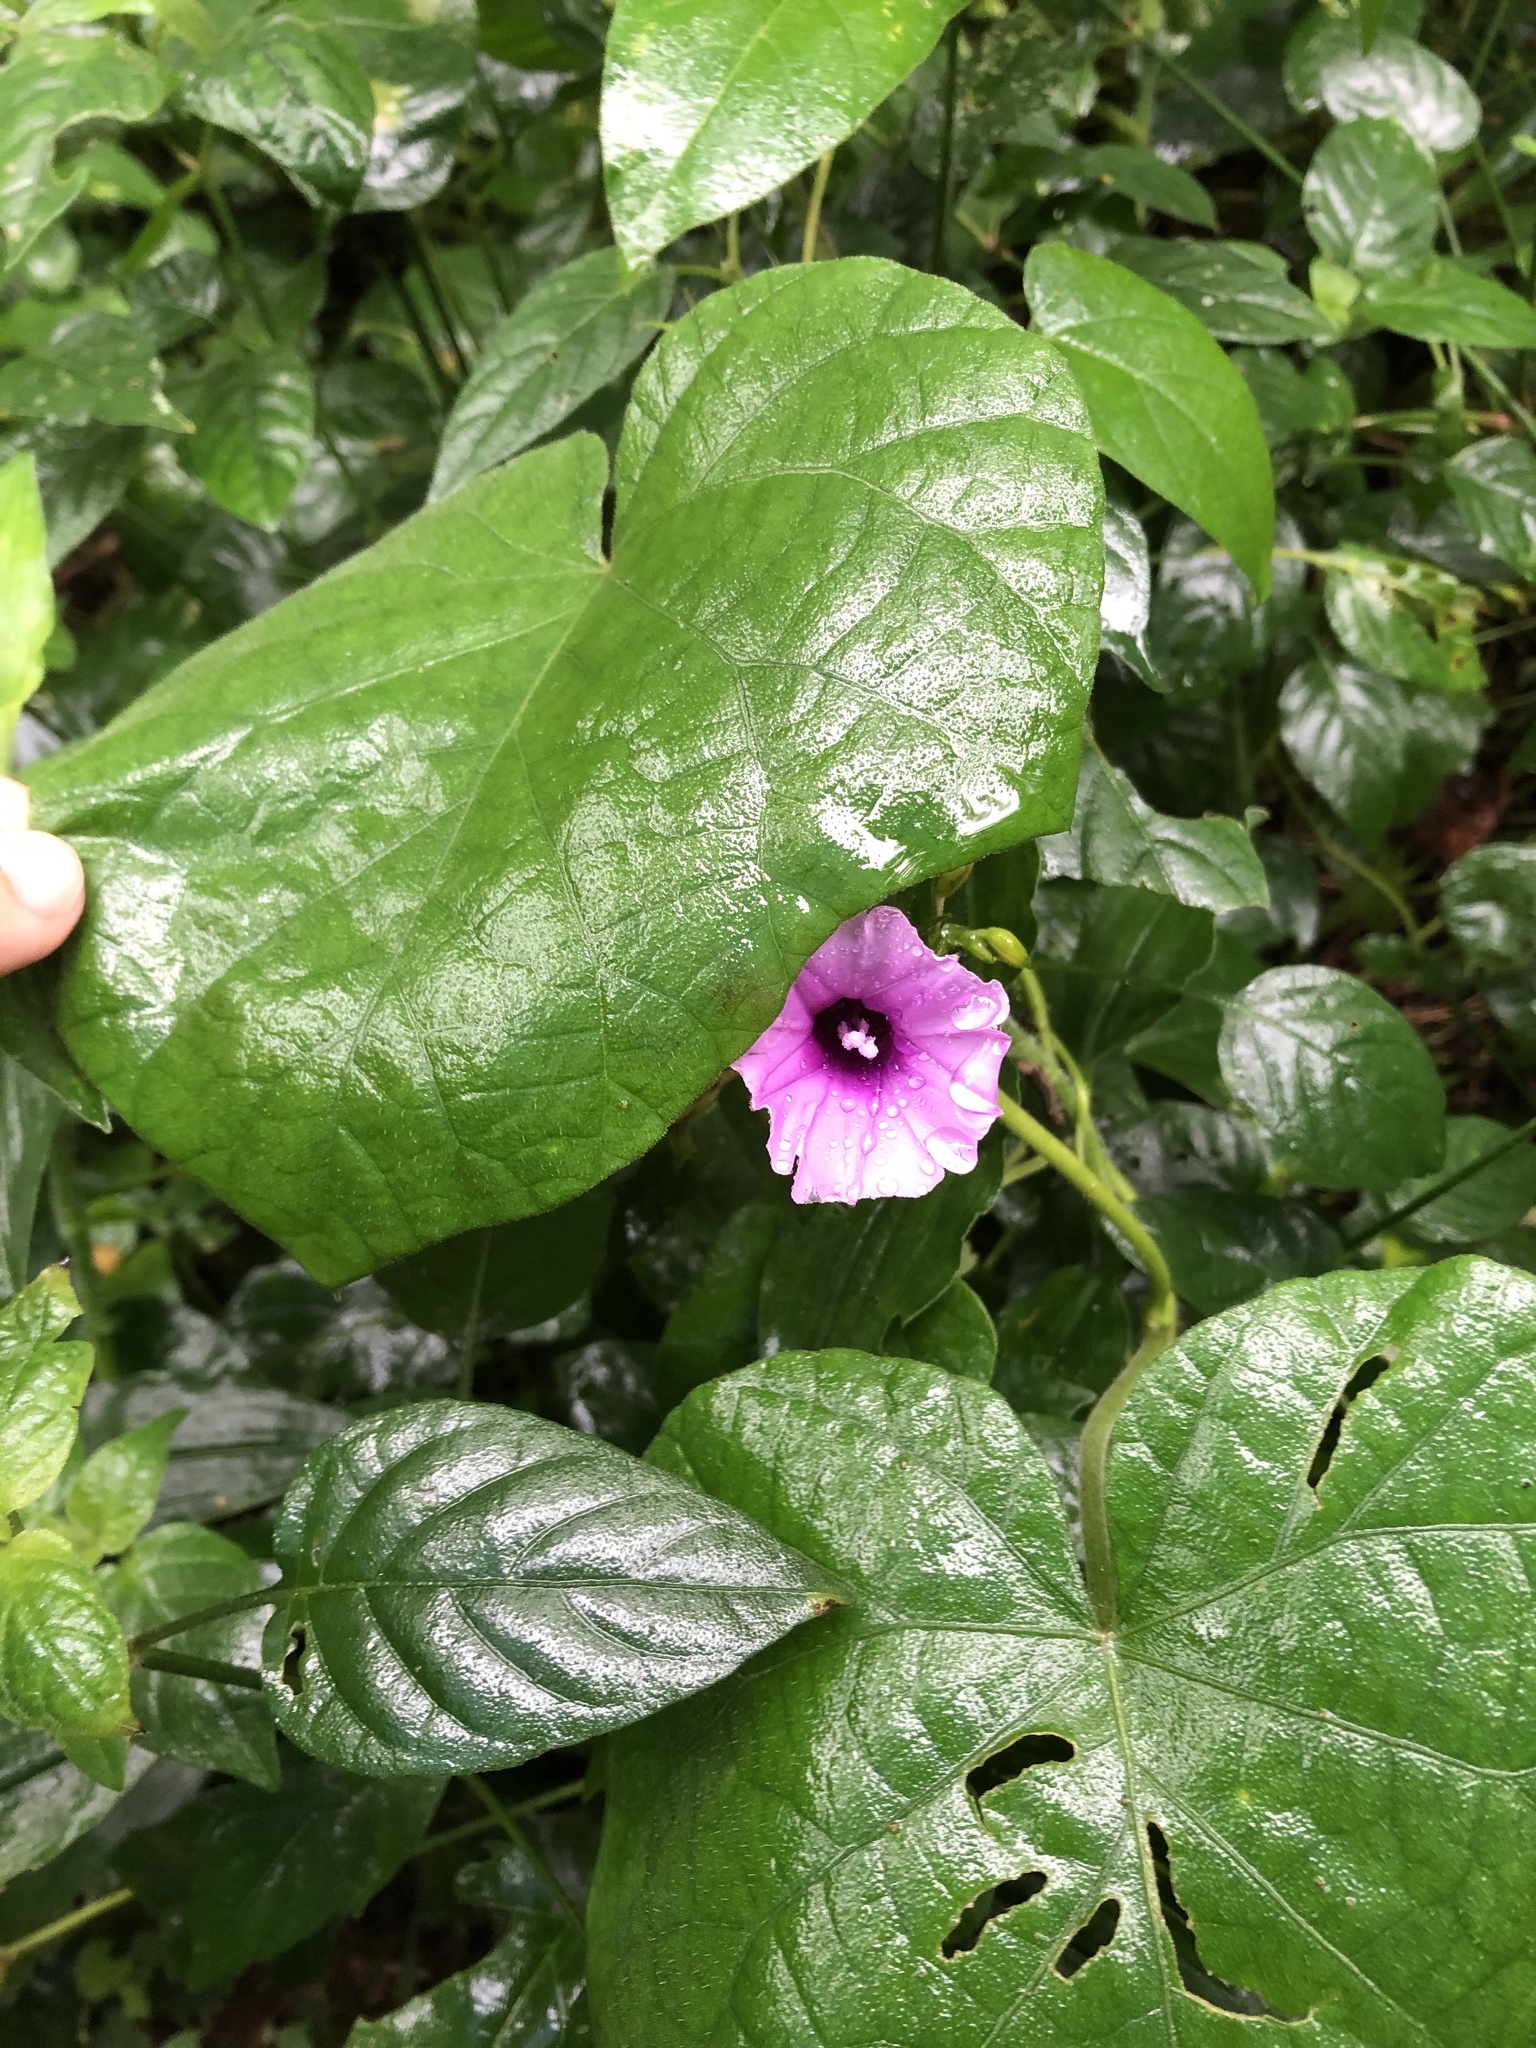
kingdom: Plantae
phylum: Tracheophyta
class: Magnoliopsida
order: Solanales
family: Convolvulaceae
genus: Ipomoea
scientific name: Ipomoea ficifolia
